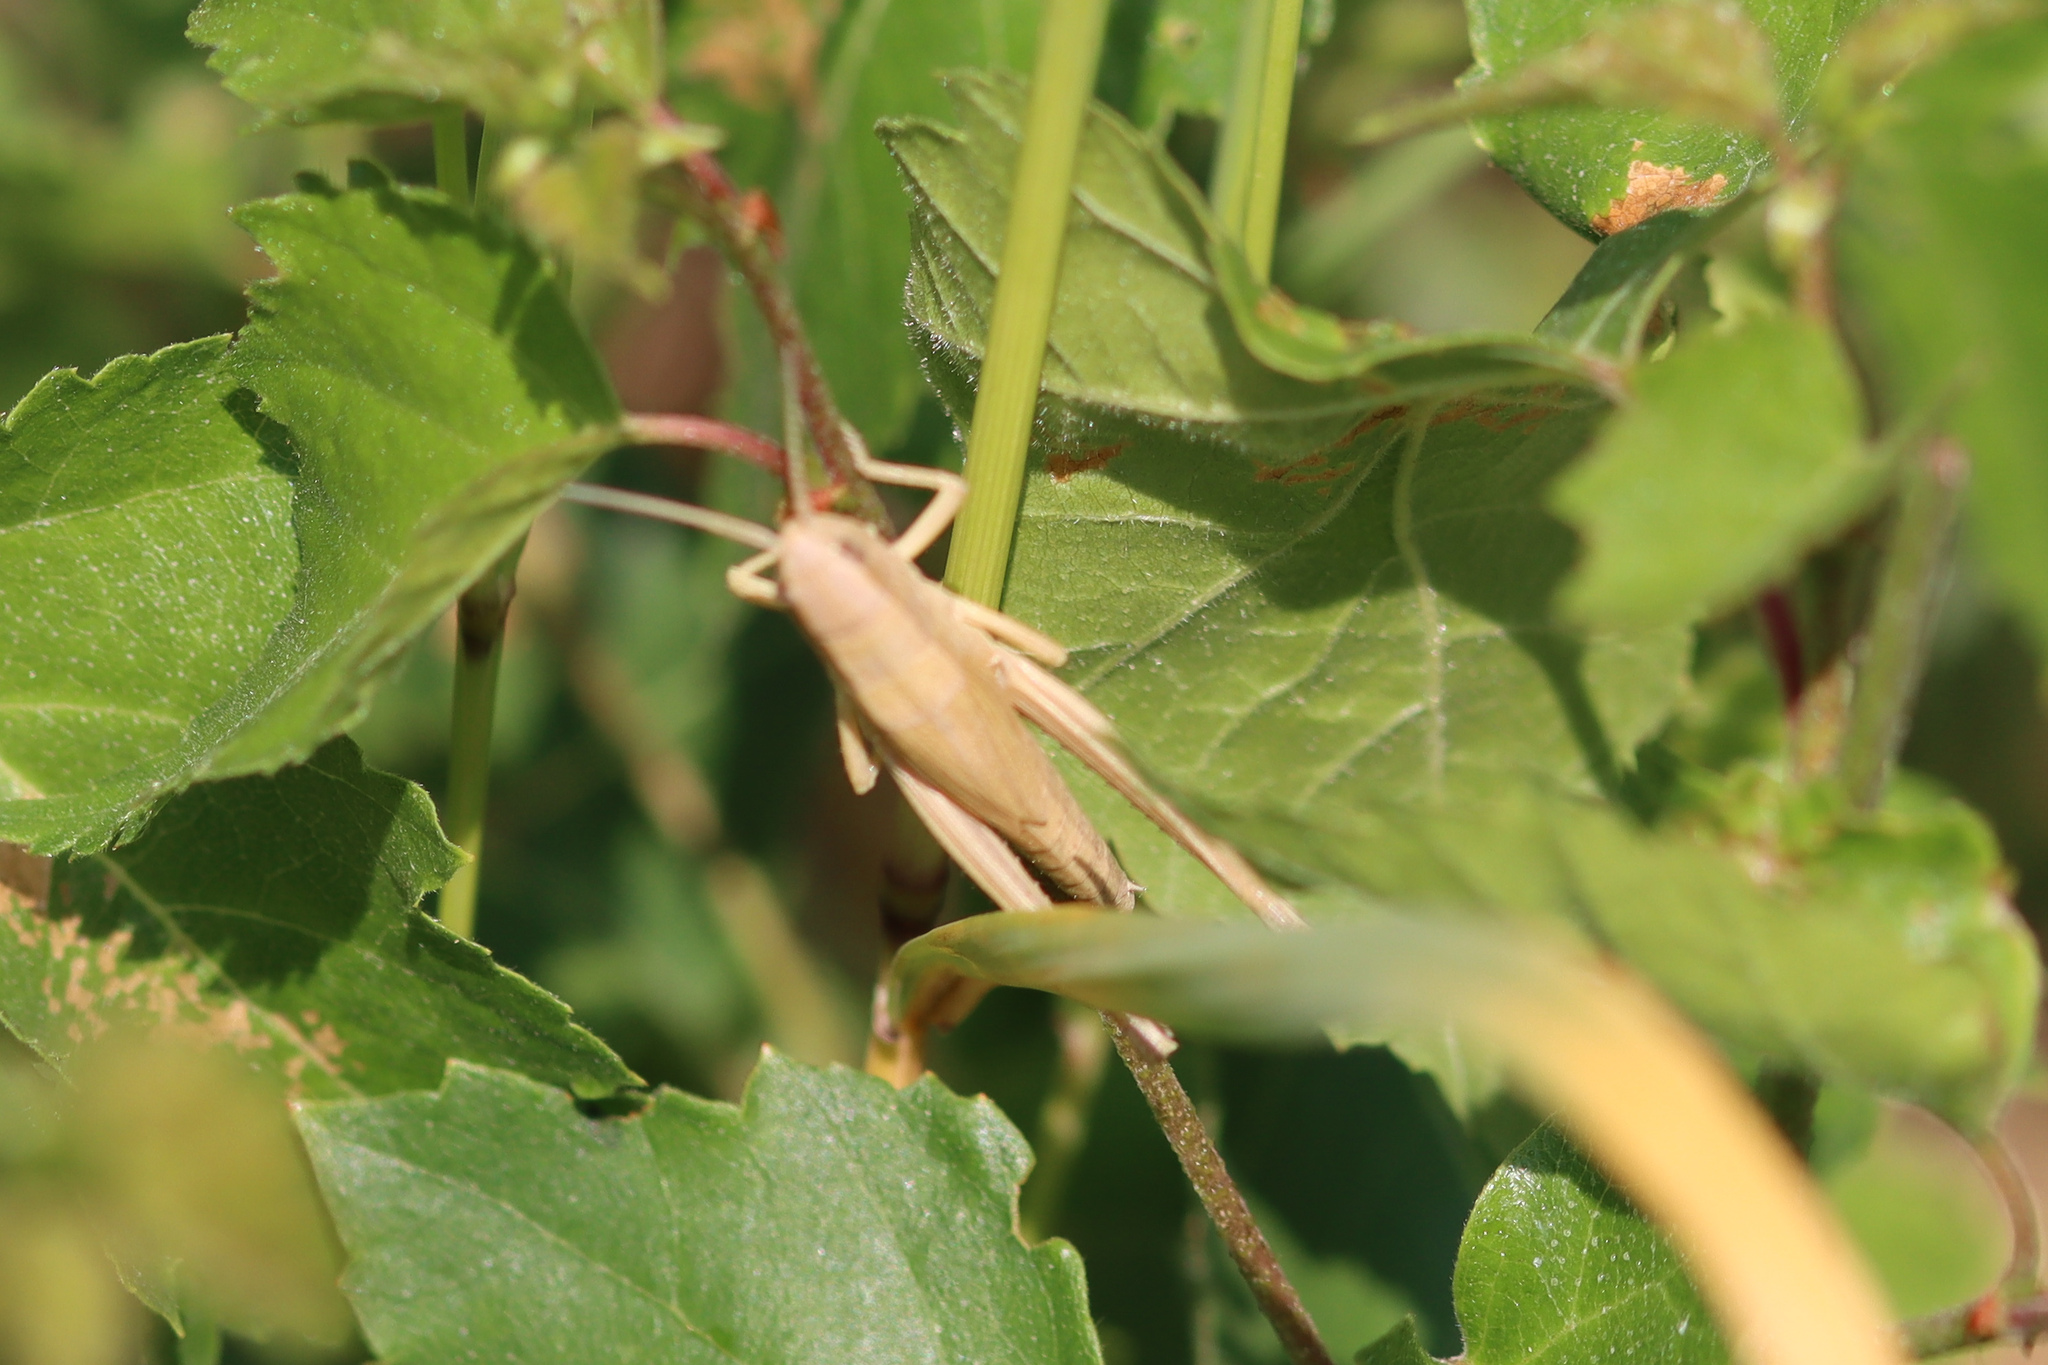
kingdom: Animalia
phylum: Arthropoda
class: Insecta
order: Orthoptera
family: Acrididae
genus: Chrysochraon
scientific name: Chrysochraon dispar
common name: Large gold grasshopper
